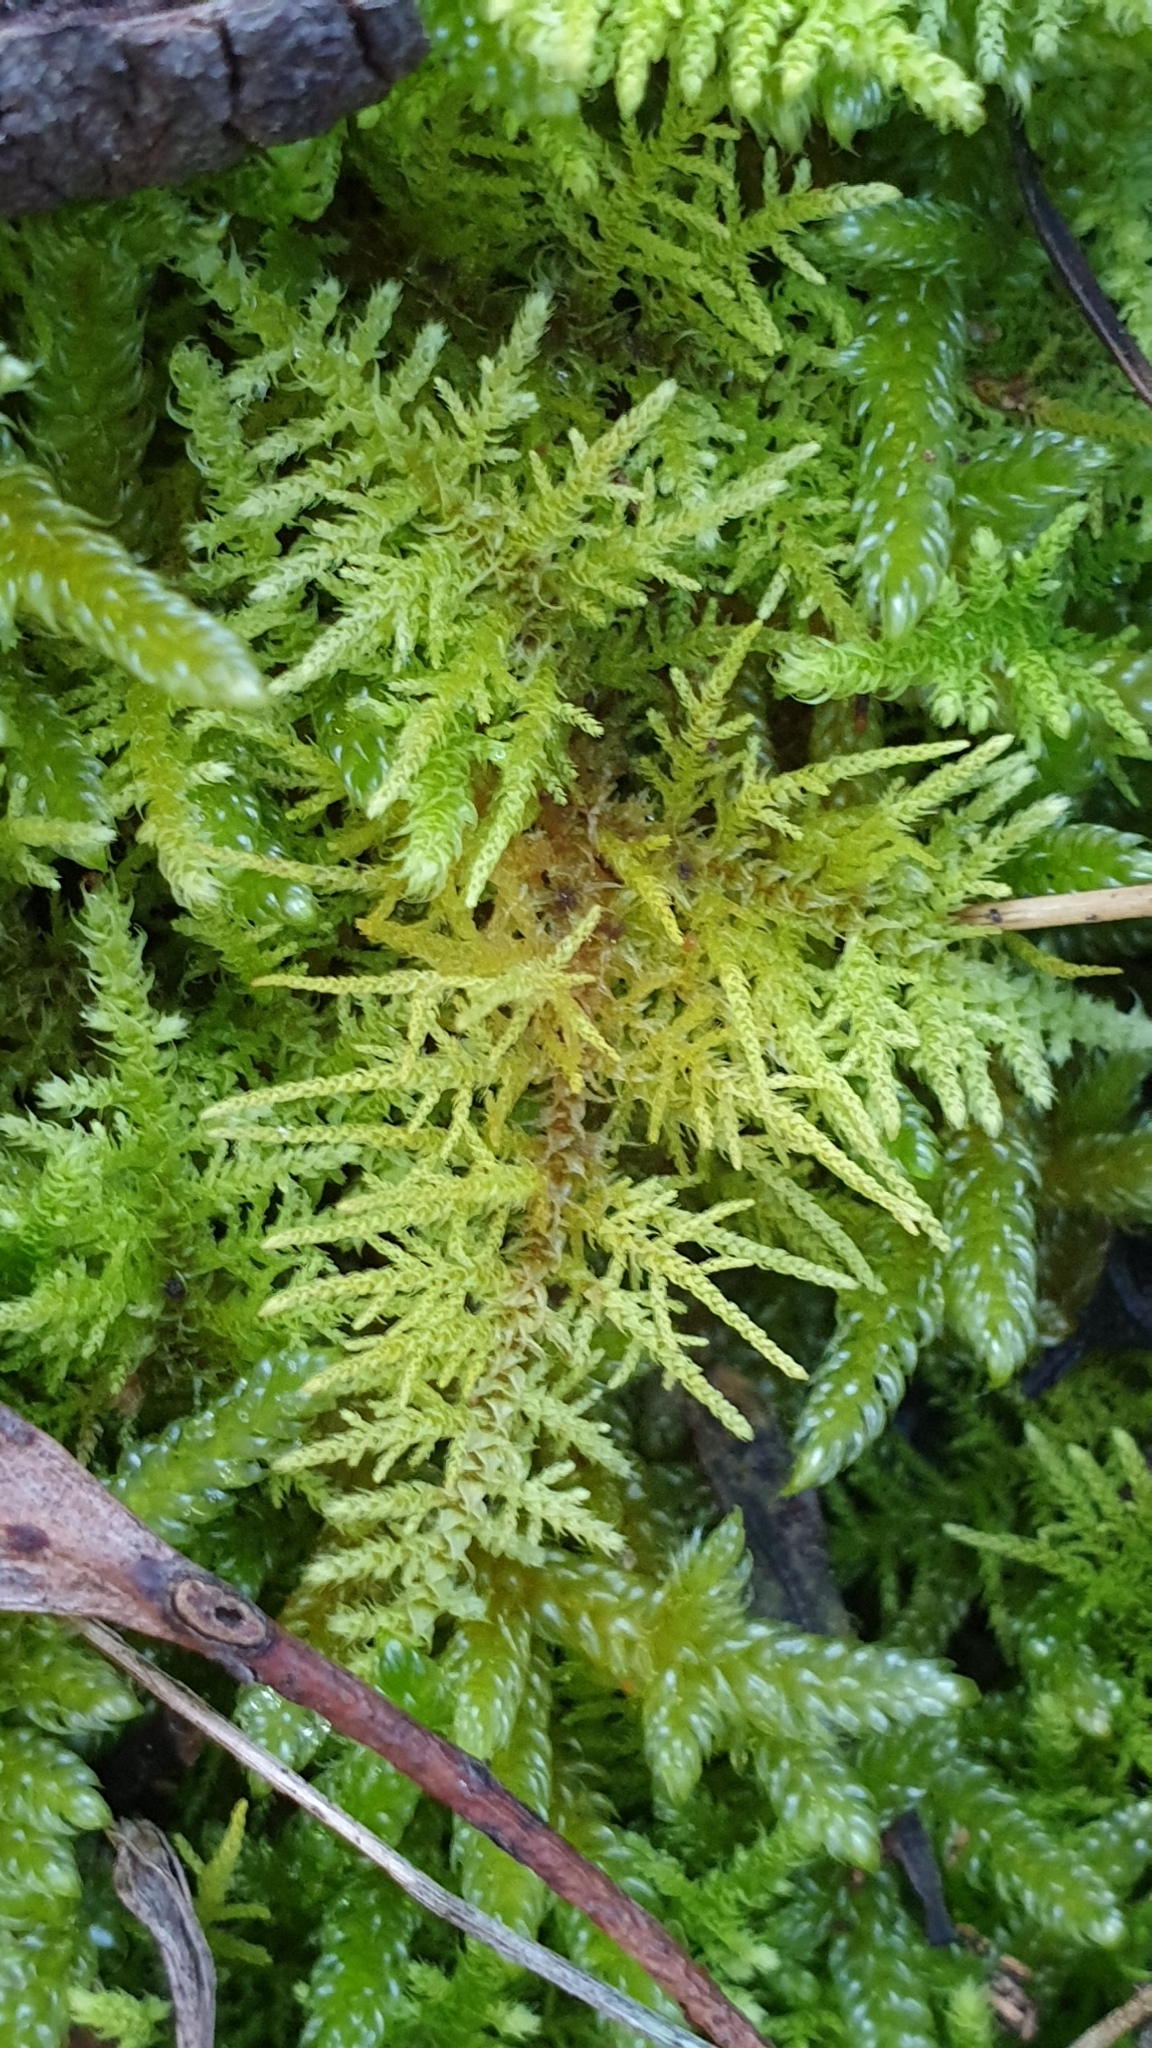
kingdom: Plantae
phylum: Bryophyta
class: Bryopsida
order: Hypnales
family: Thuidiaceae
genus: Thuidiopsis
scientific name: Thuidiopsis sparsa
